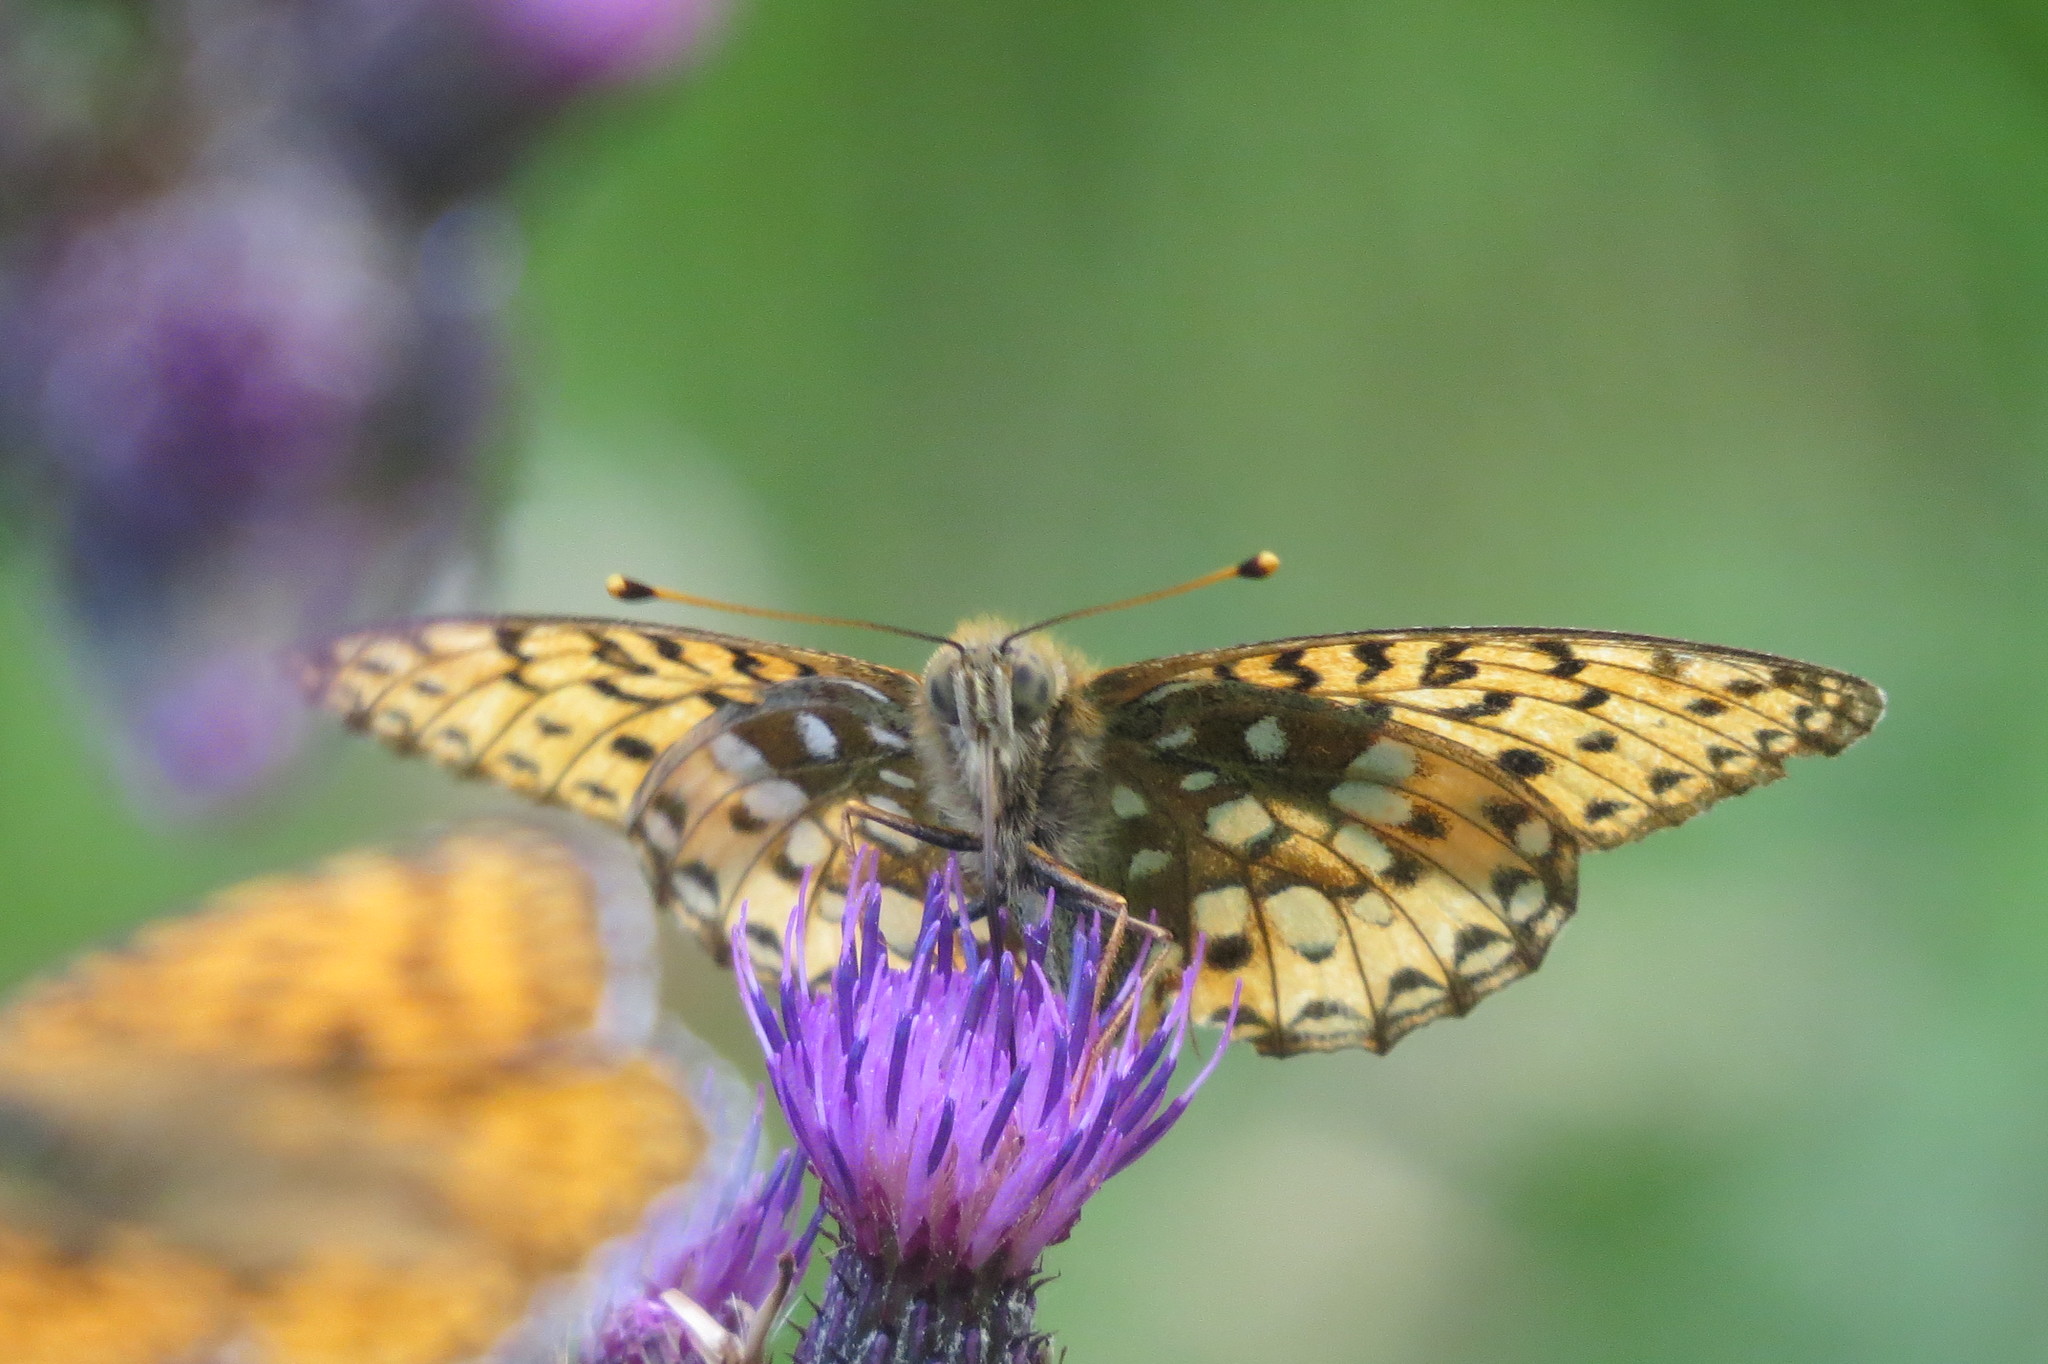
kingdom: Animalia
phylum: Arthropoda
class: Insecta
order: Lepidoptera
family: Nymphalidae
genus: Speyeria
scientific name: Speyeria aglaja
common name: Dark green fritillary
